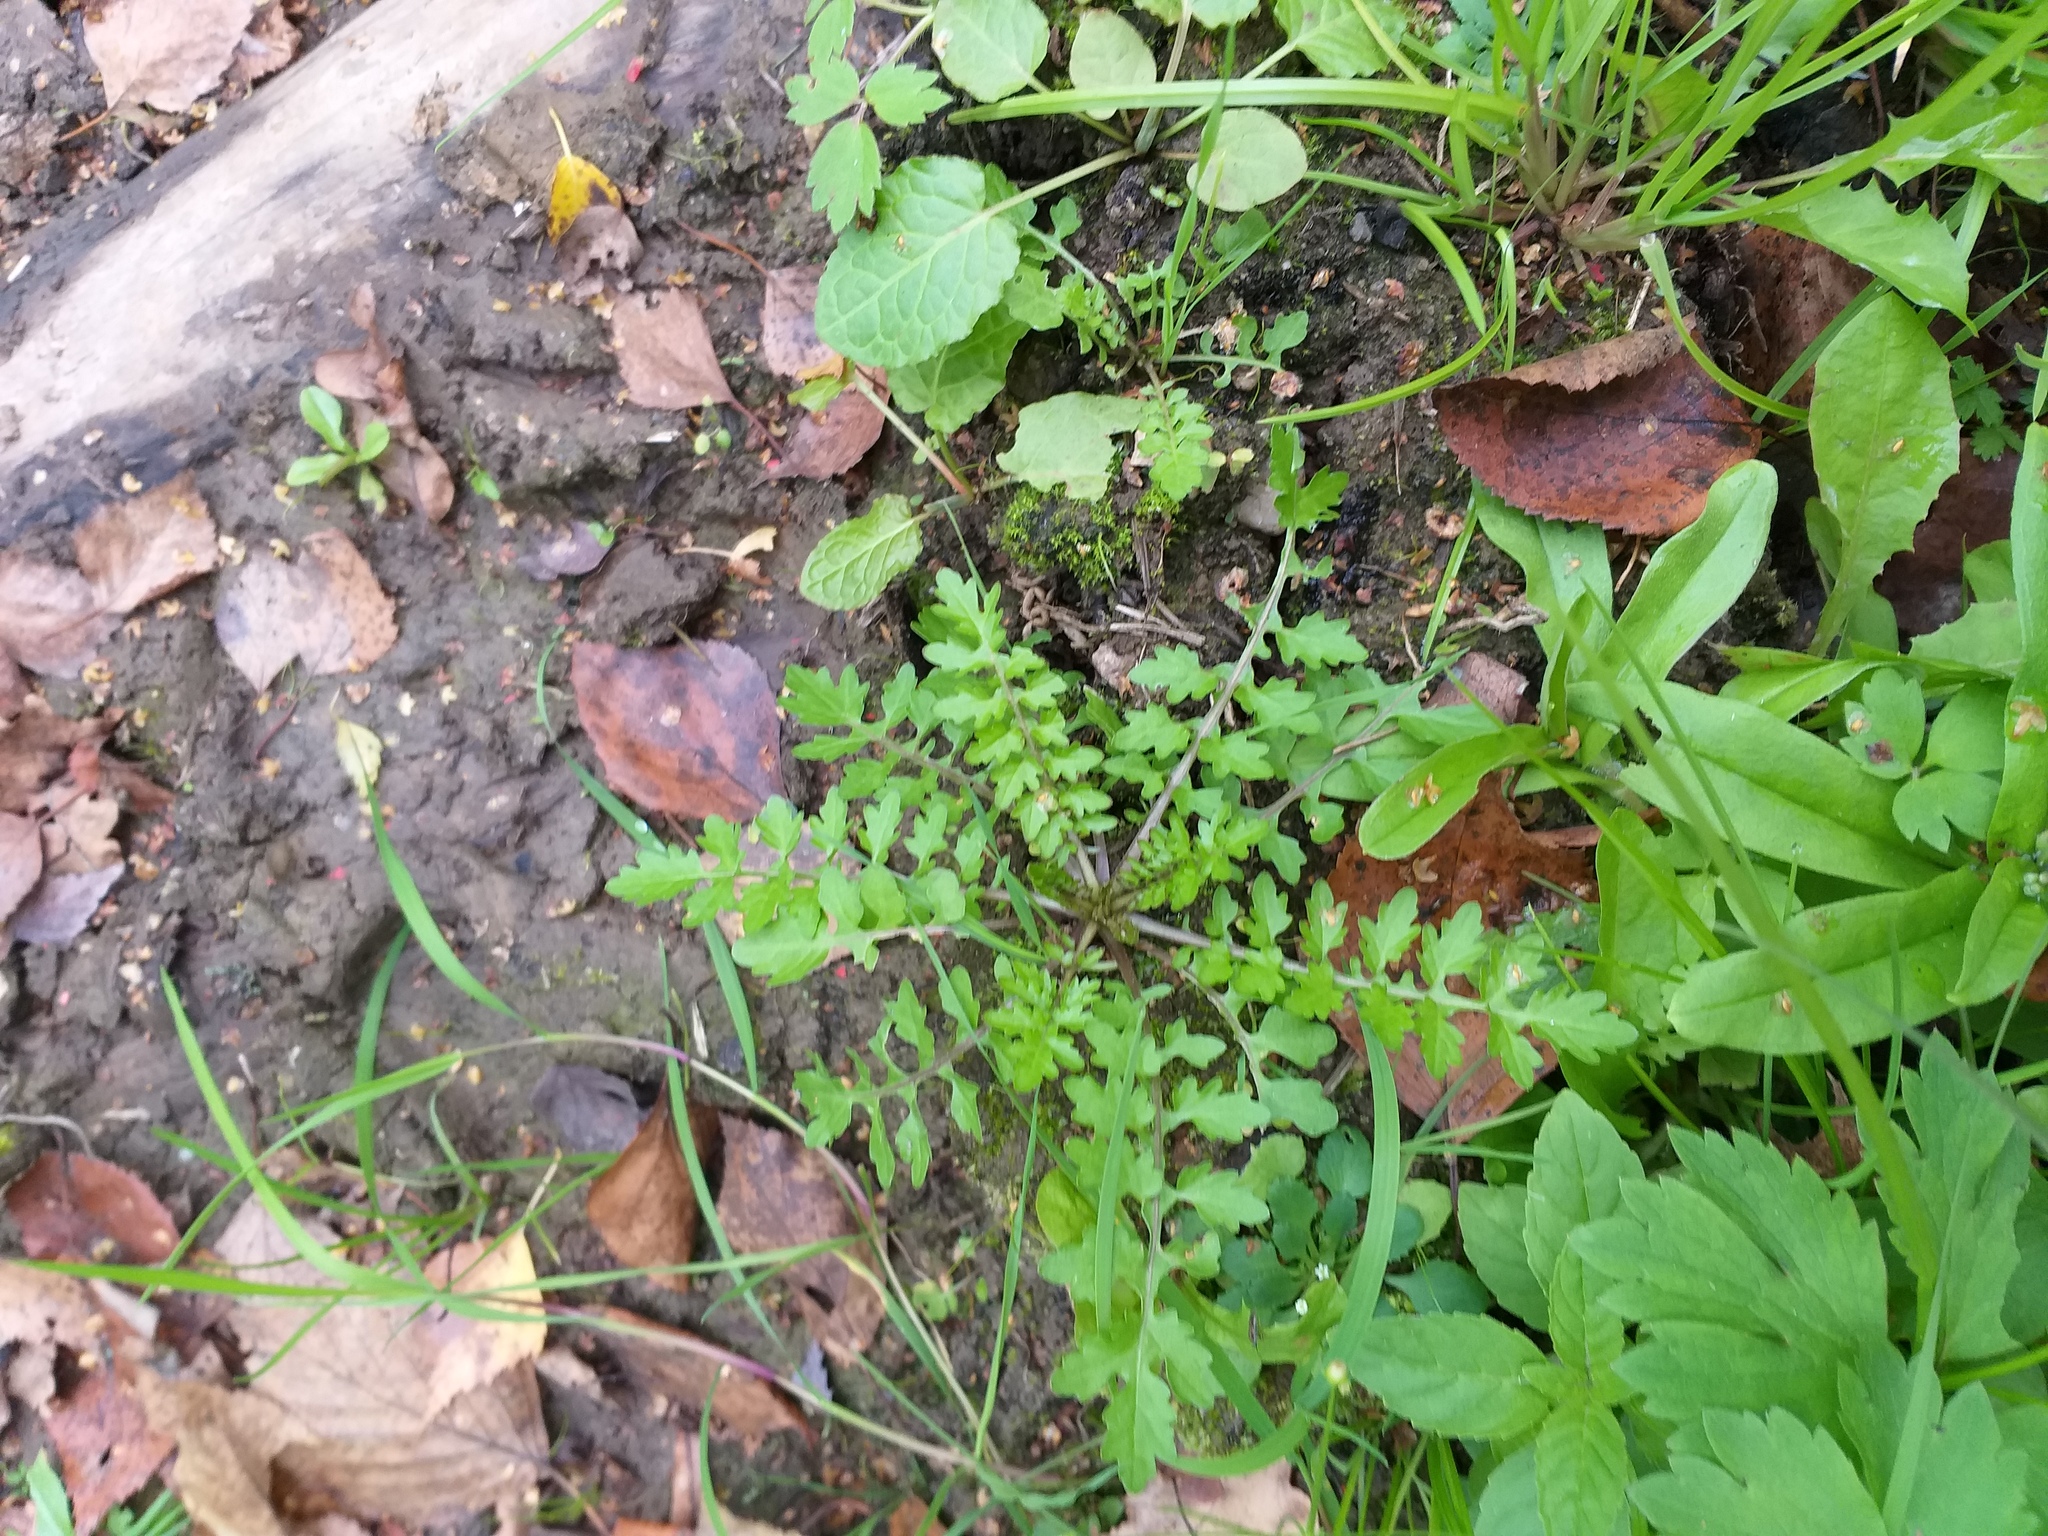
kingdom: Plantae
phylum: Tracheophyta
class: Magnoliopsida
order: Brassicales
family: Brassicaceae
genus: Rorippa
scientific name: Rorippa palustris
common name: Marsh yellow-cress
